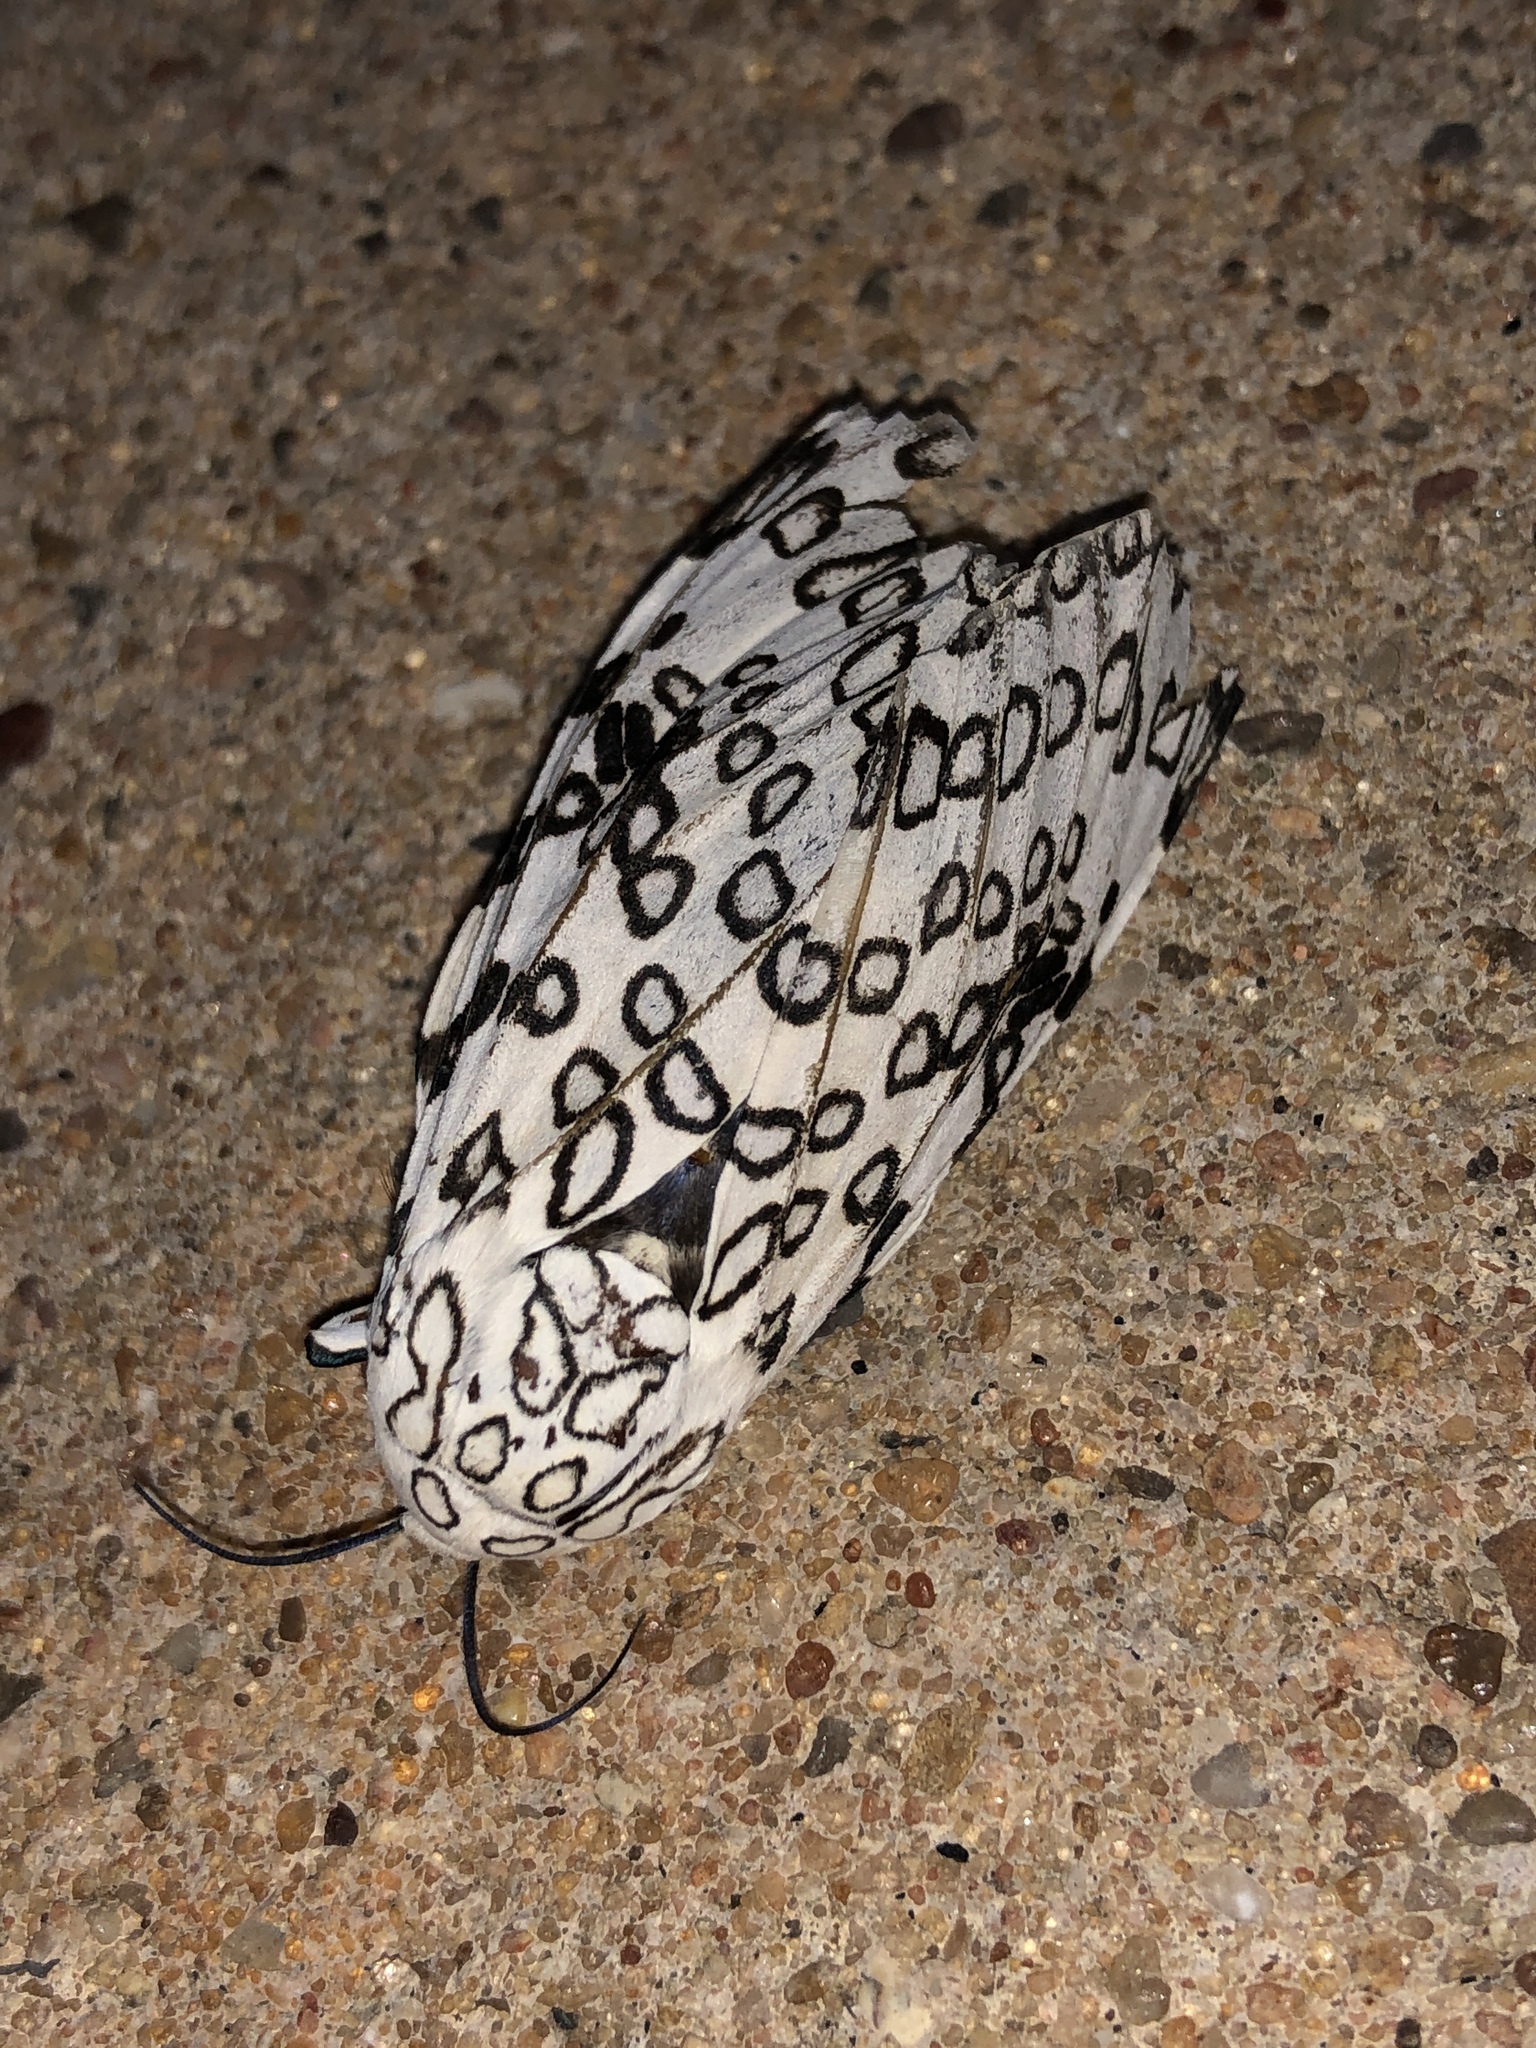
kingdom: Animalia
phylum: Arthropoda
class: Insecta
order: Lepidoptera
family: Erebidae
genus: Hypercompe
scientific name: Hypercompe scribonia
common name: Giant leopard moth
